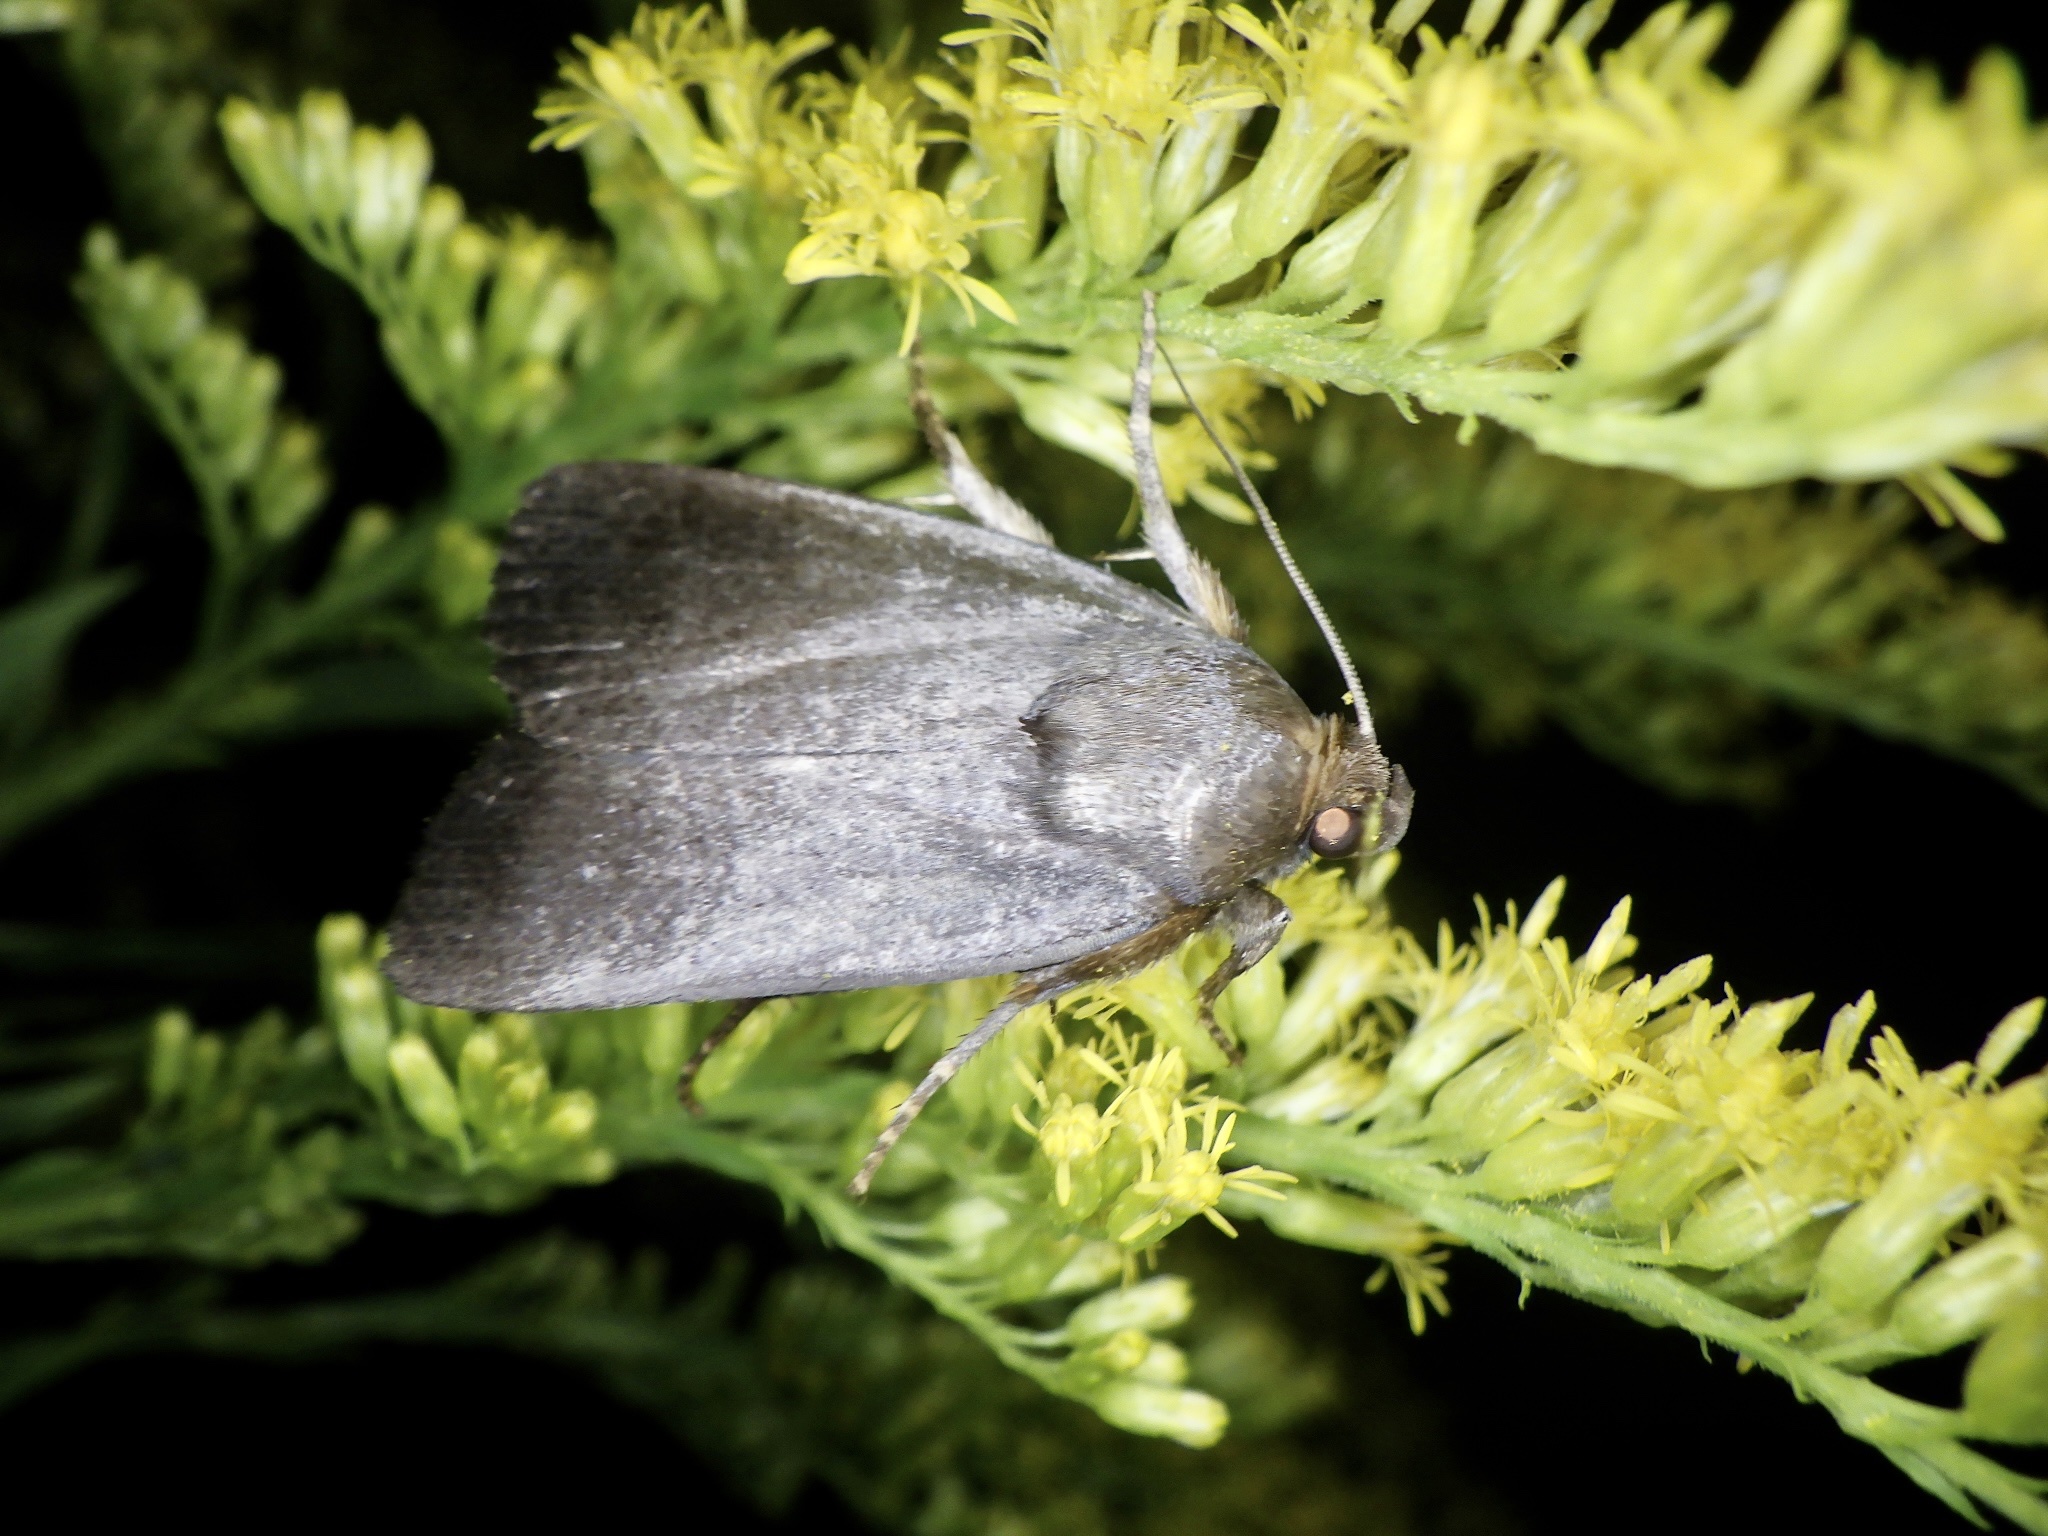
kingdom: Animalia
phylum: Arthropoda
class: Insecta
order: Lepidoptera
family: Noctuidae
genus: Amphipyra
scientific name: Amphipyra livida
